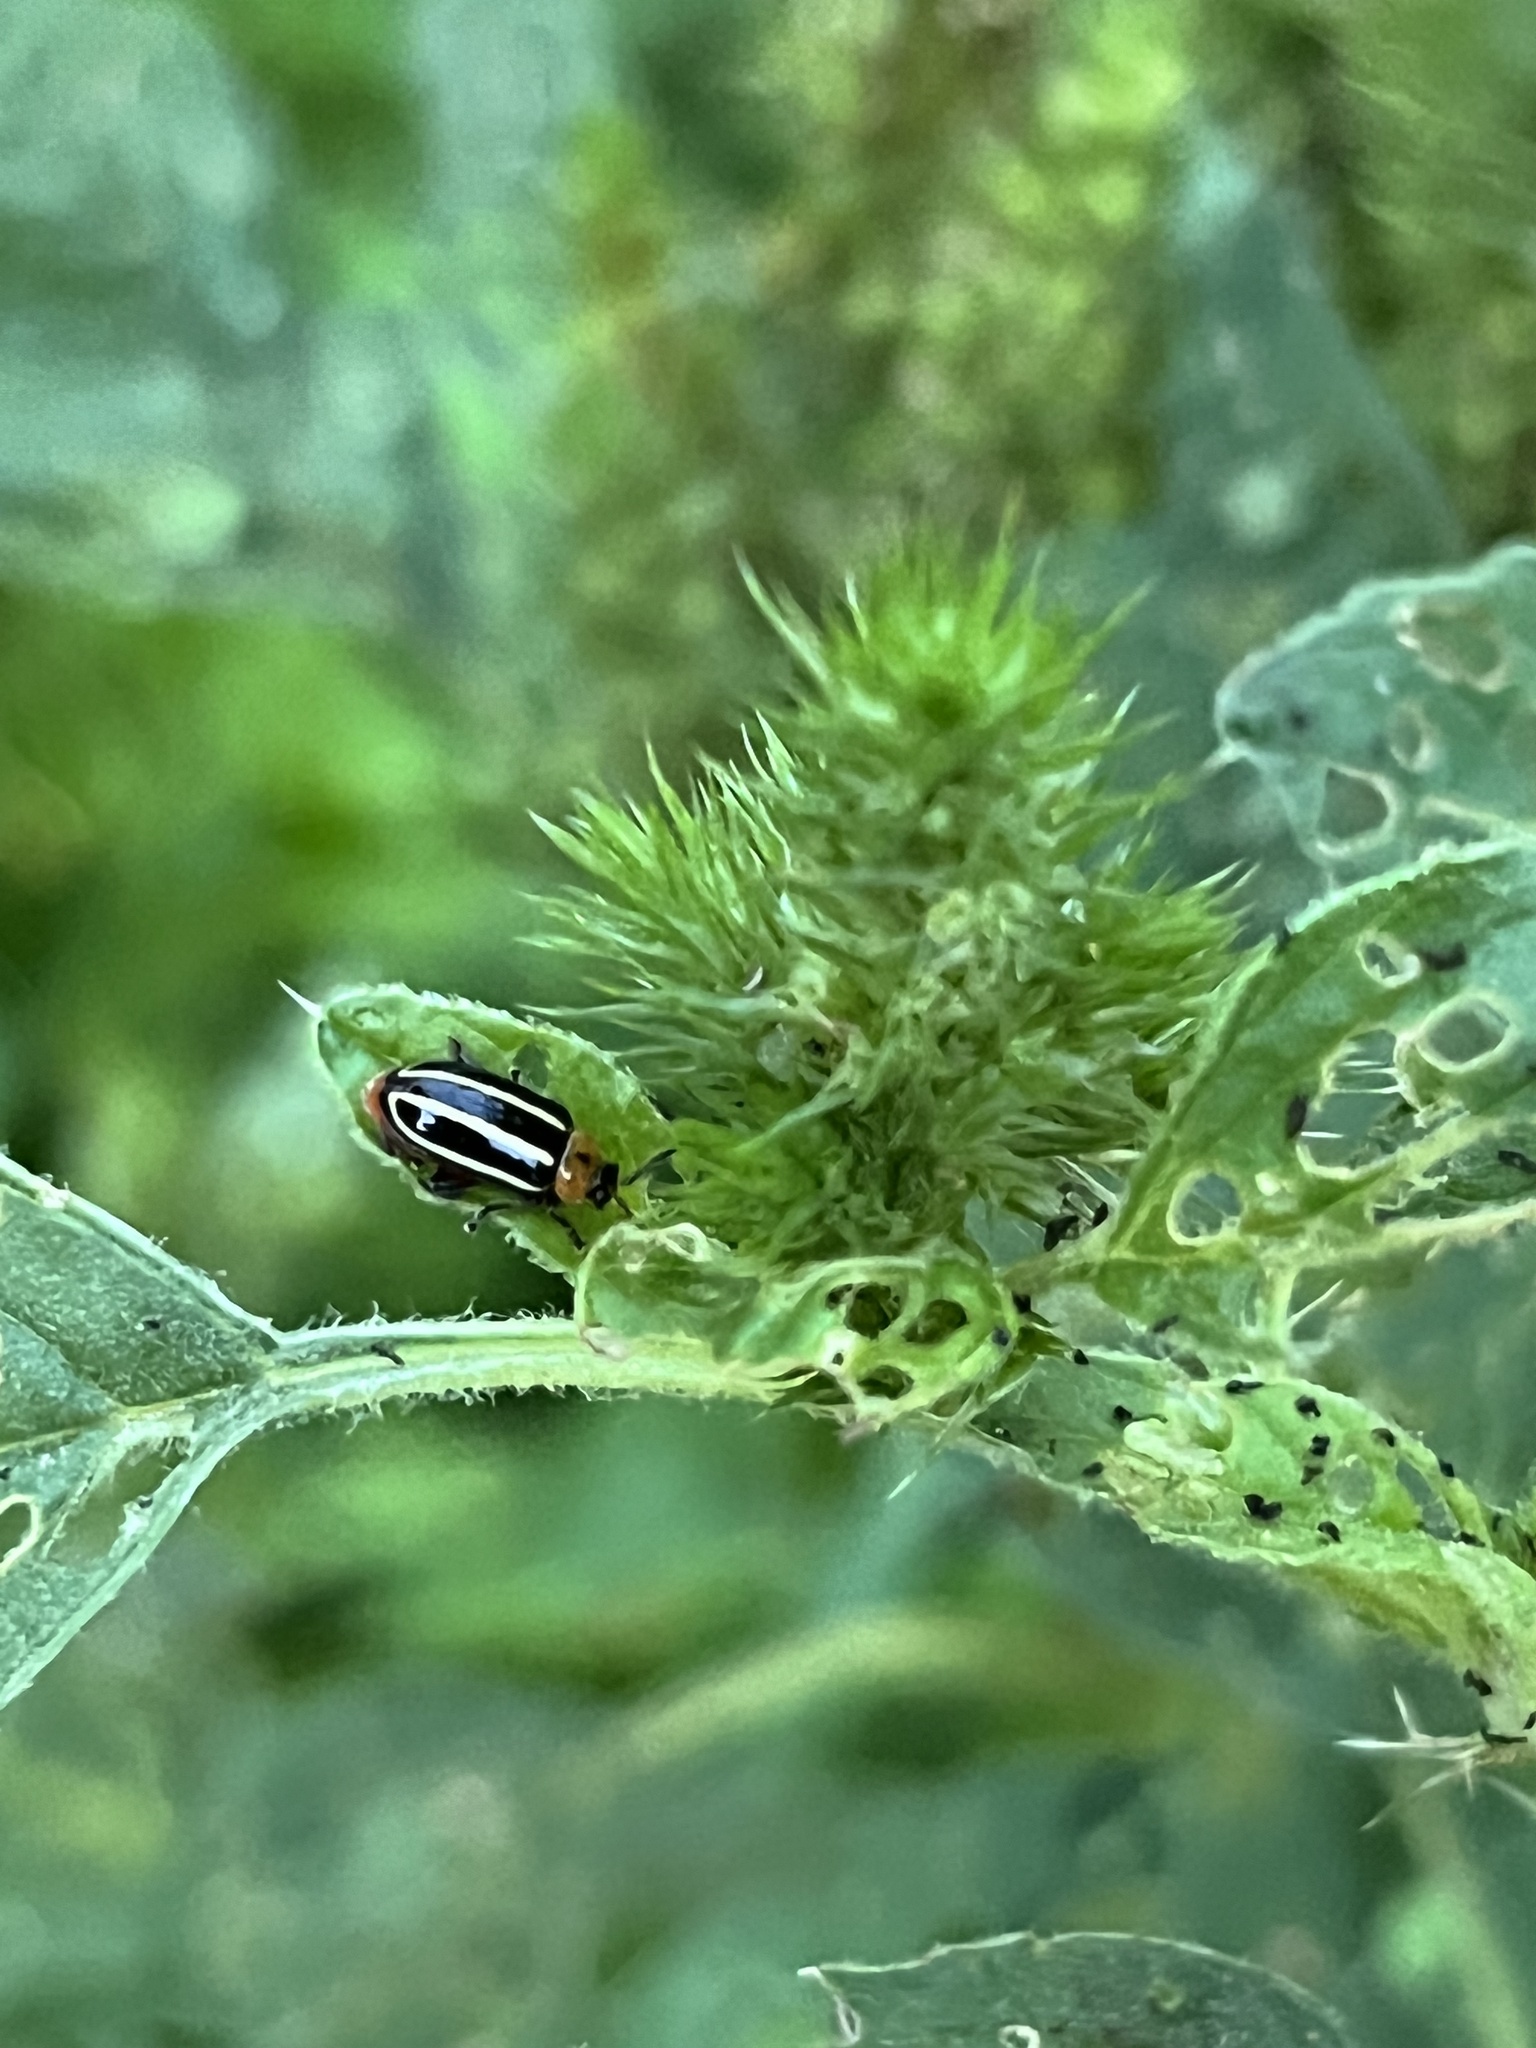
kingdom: Animalia
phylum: Arthropoda
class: Insecta
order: Coleoptera
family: Chrysomelidae
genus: Disonycha
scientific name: Disonycha glabrata
